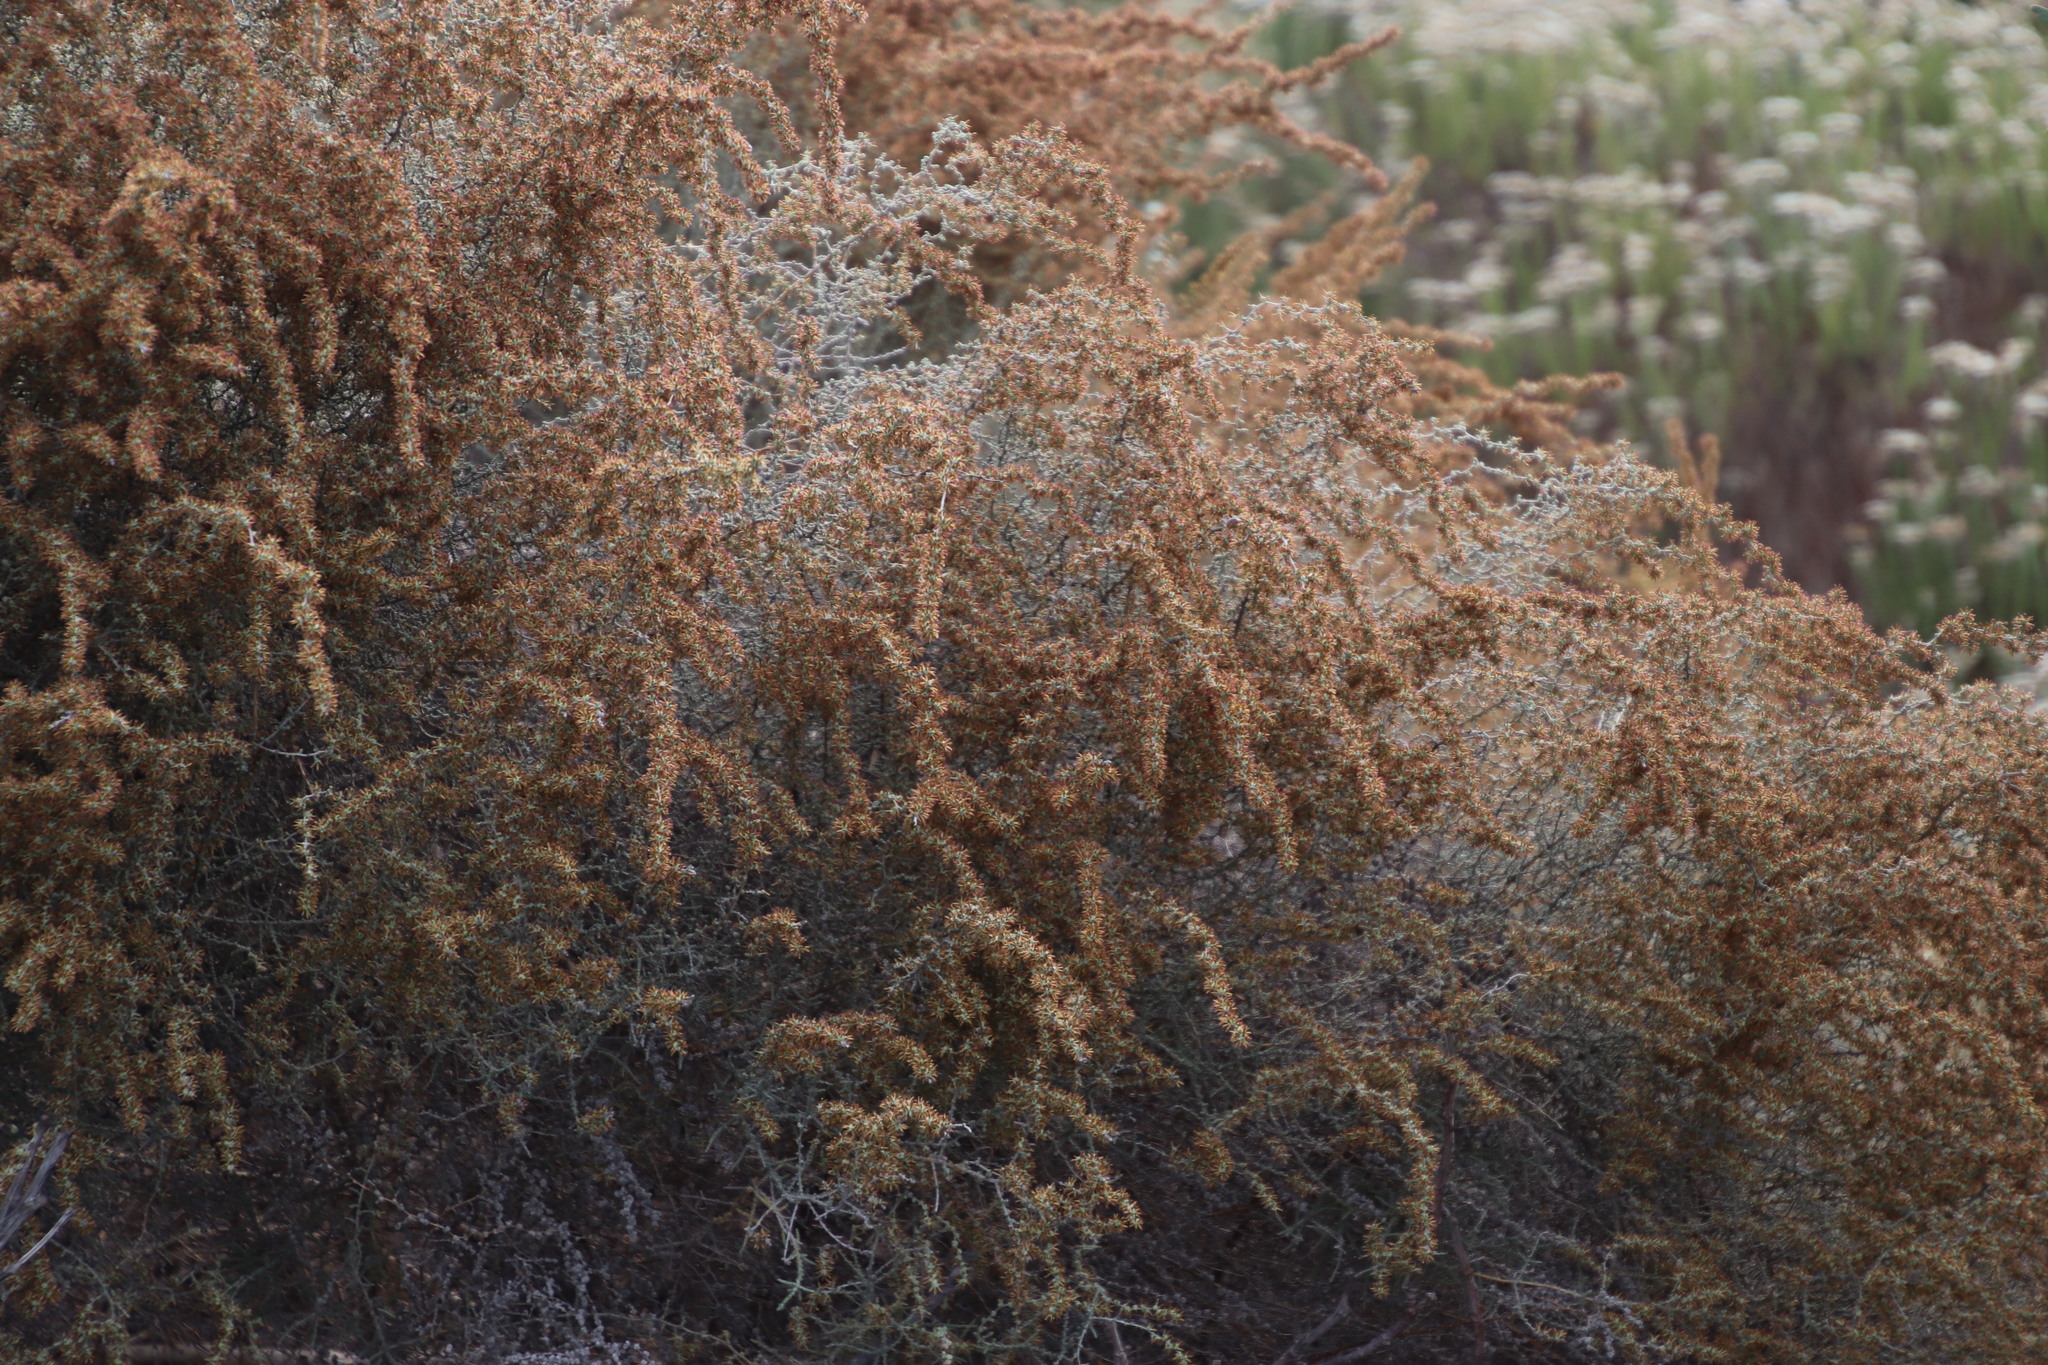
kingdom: Plantae
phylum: Tracheophyta
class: Magnoliopsida
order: Asterales
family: Asteraceae
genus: Seriphium
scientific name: Seriphium plumosum
